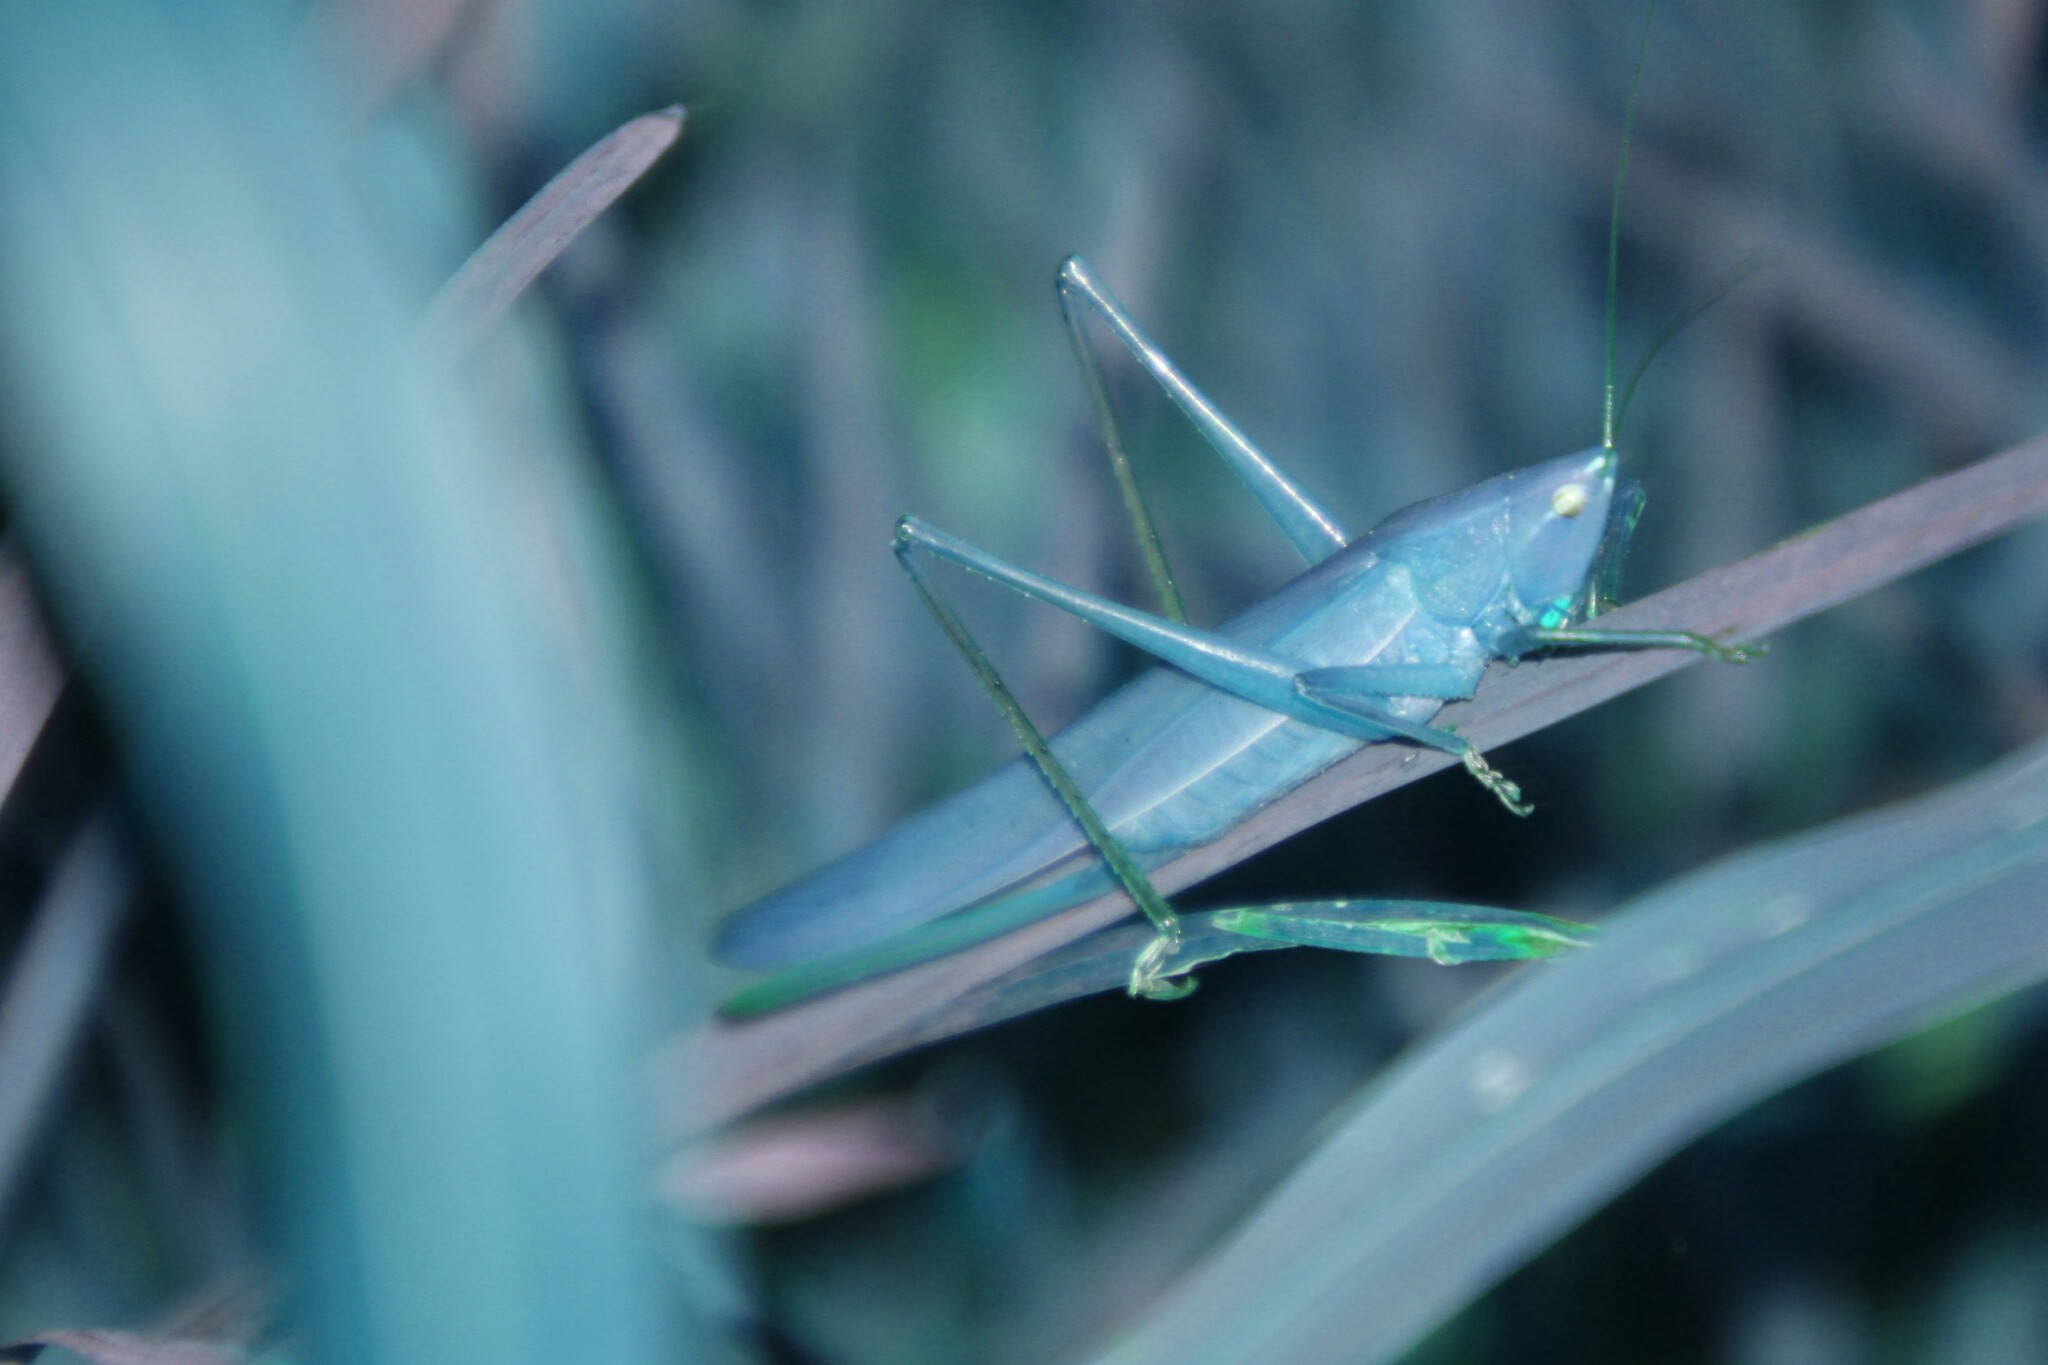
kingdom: Animalia
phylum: Arthropoda
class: Insecta
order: Orthoptera
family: Tettigoniidae
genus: Ruspolia
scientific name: Ruspolia nitidula
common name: Large conehead
